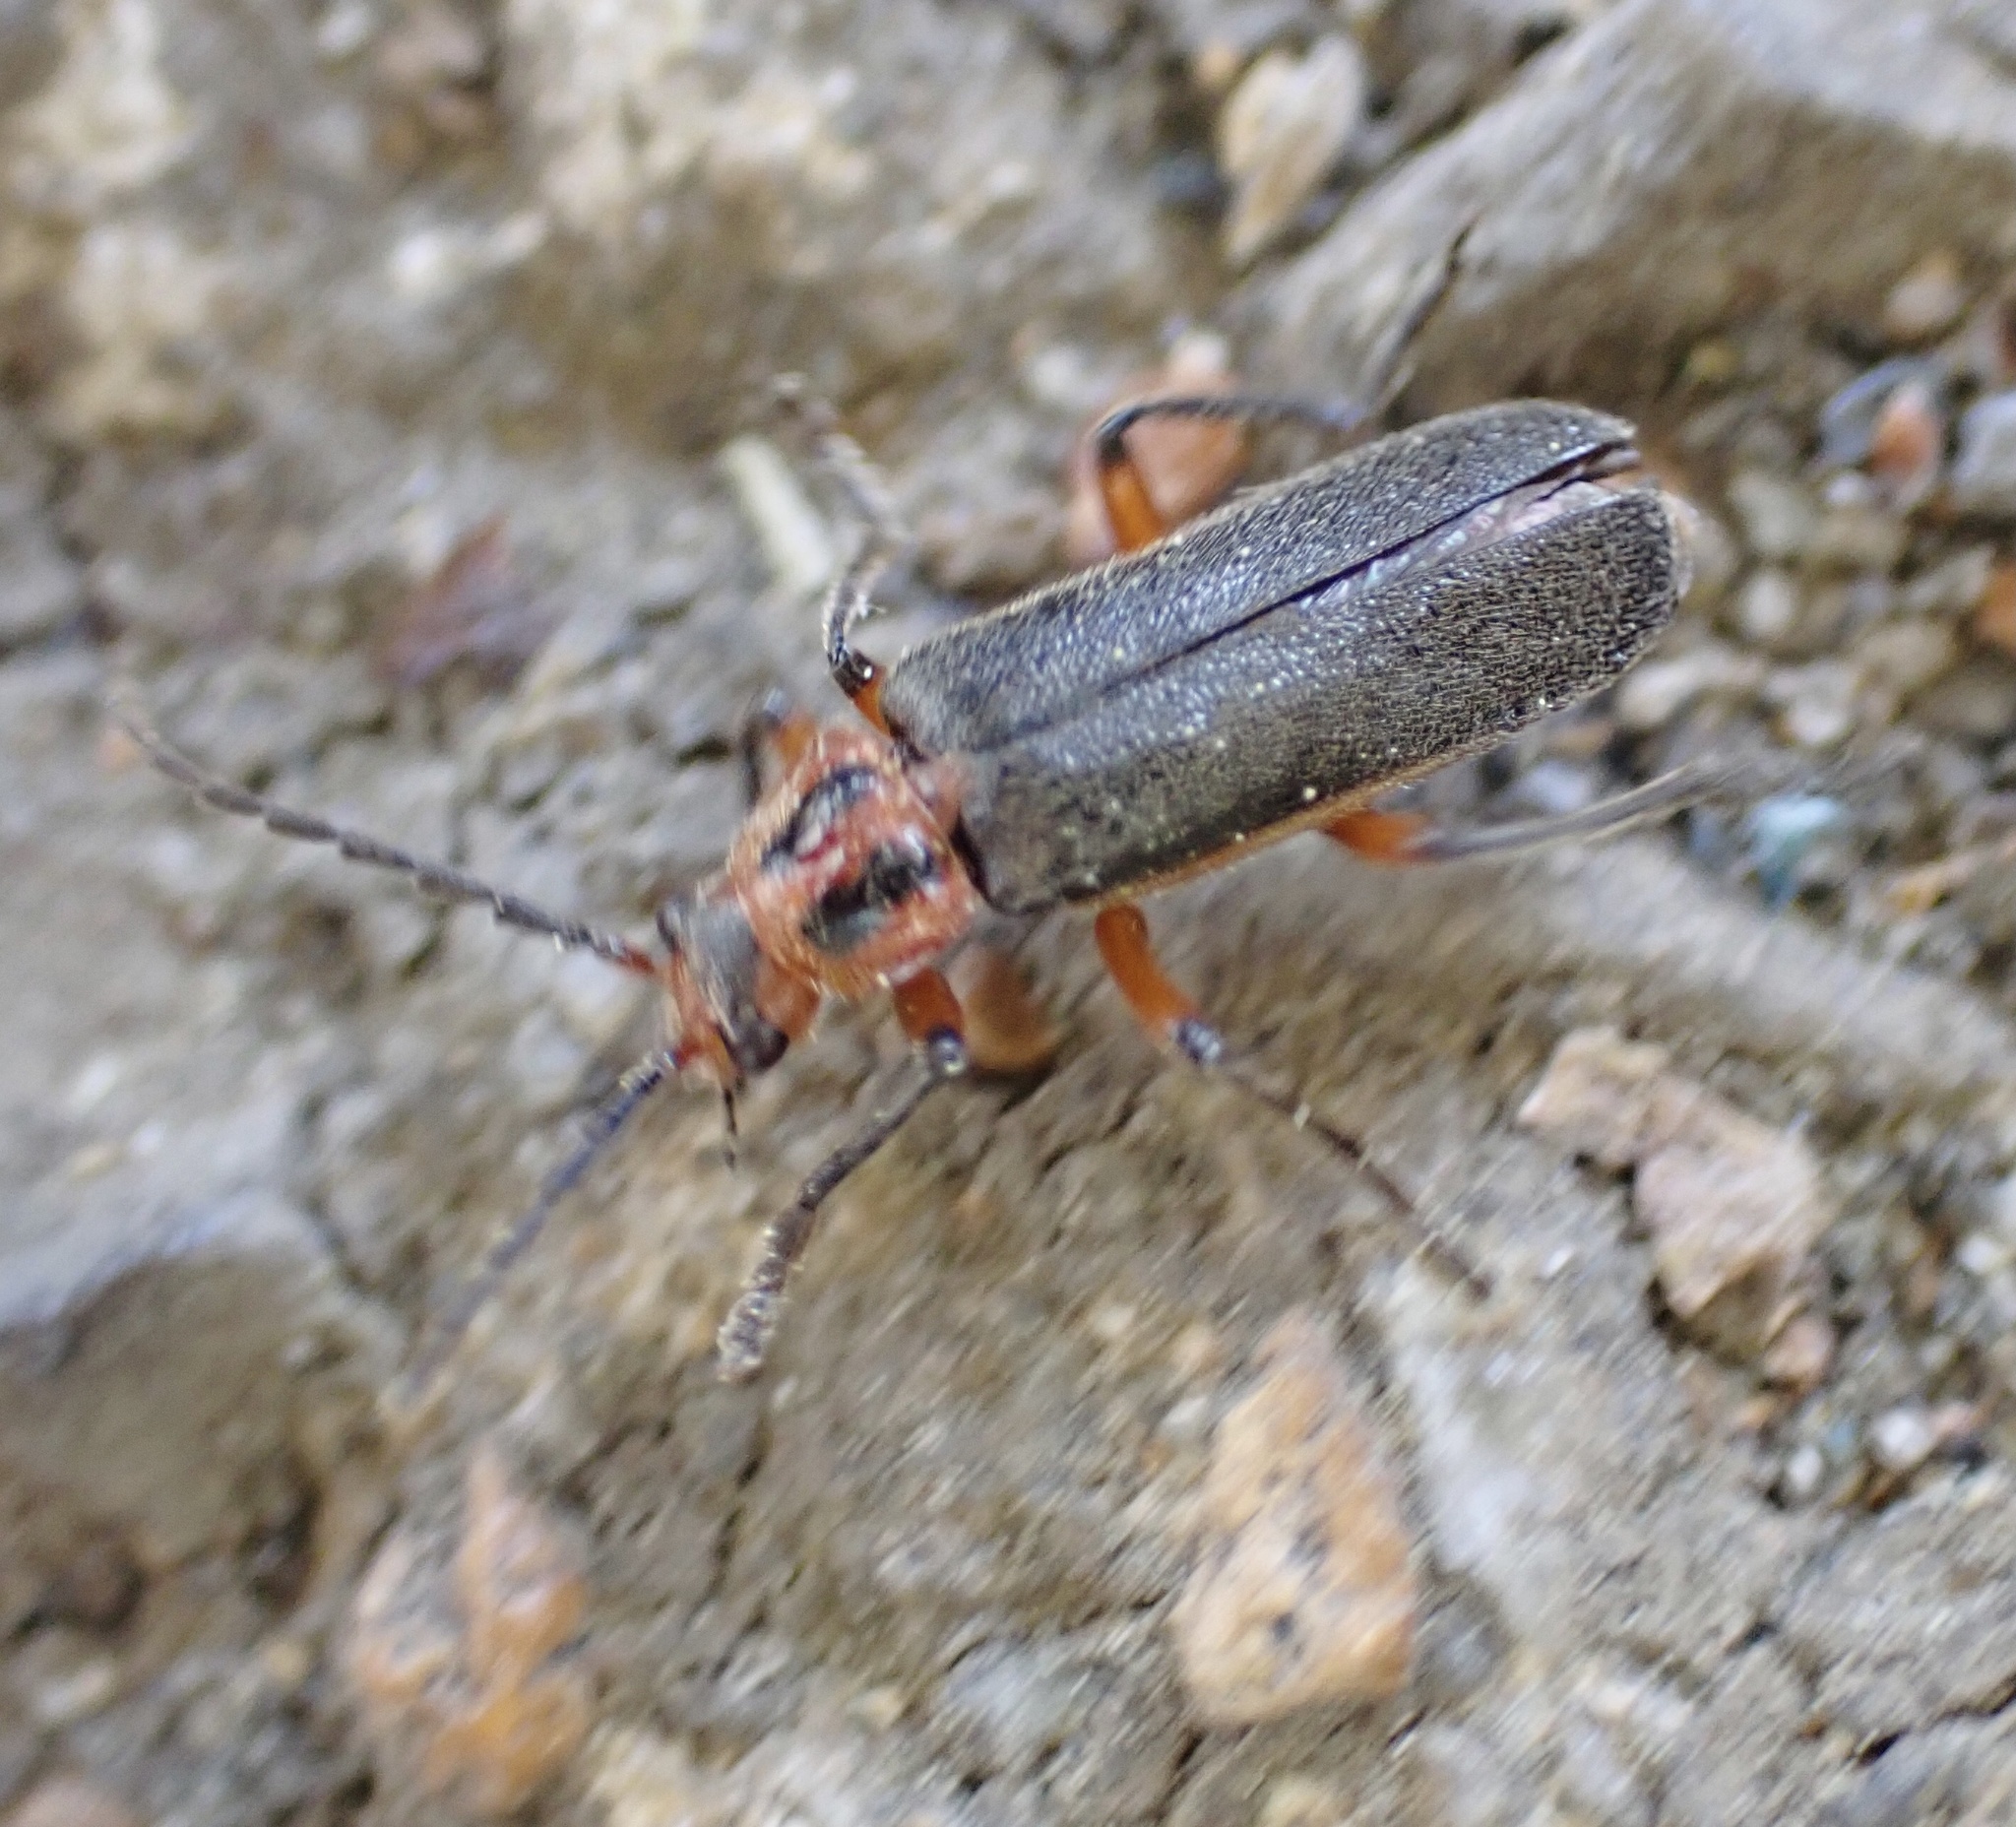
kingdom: Animalia
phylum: Arthropoda
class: Insecta
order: Coleoptera
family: Cantharidae
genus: Atalantycha
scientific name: Atalantycha bilineata
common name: Two-lined leatherwing
